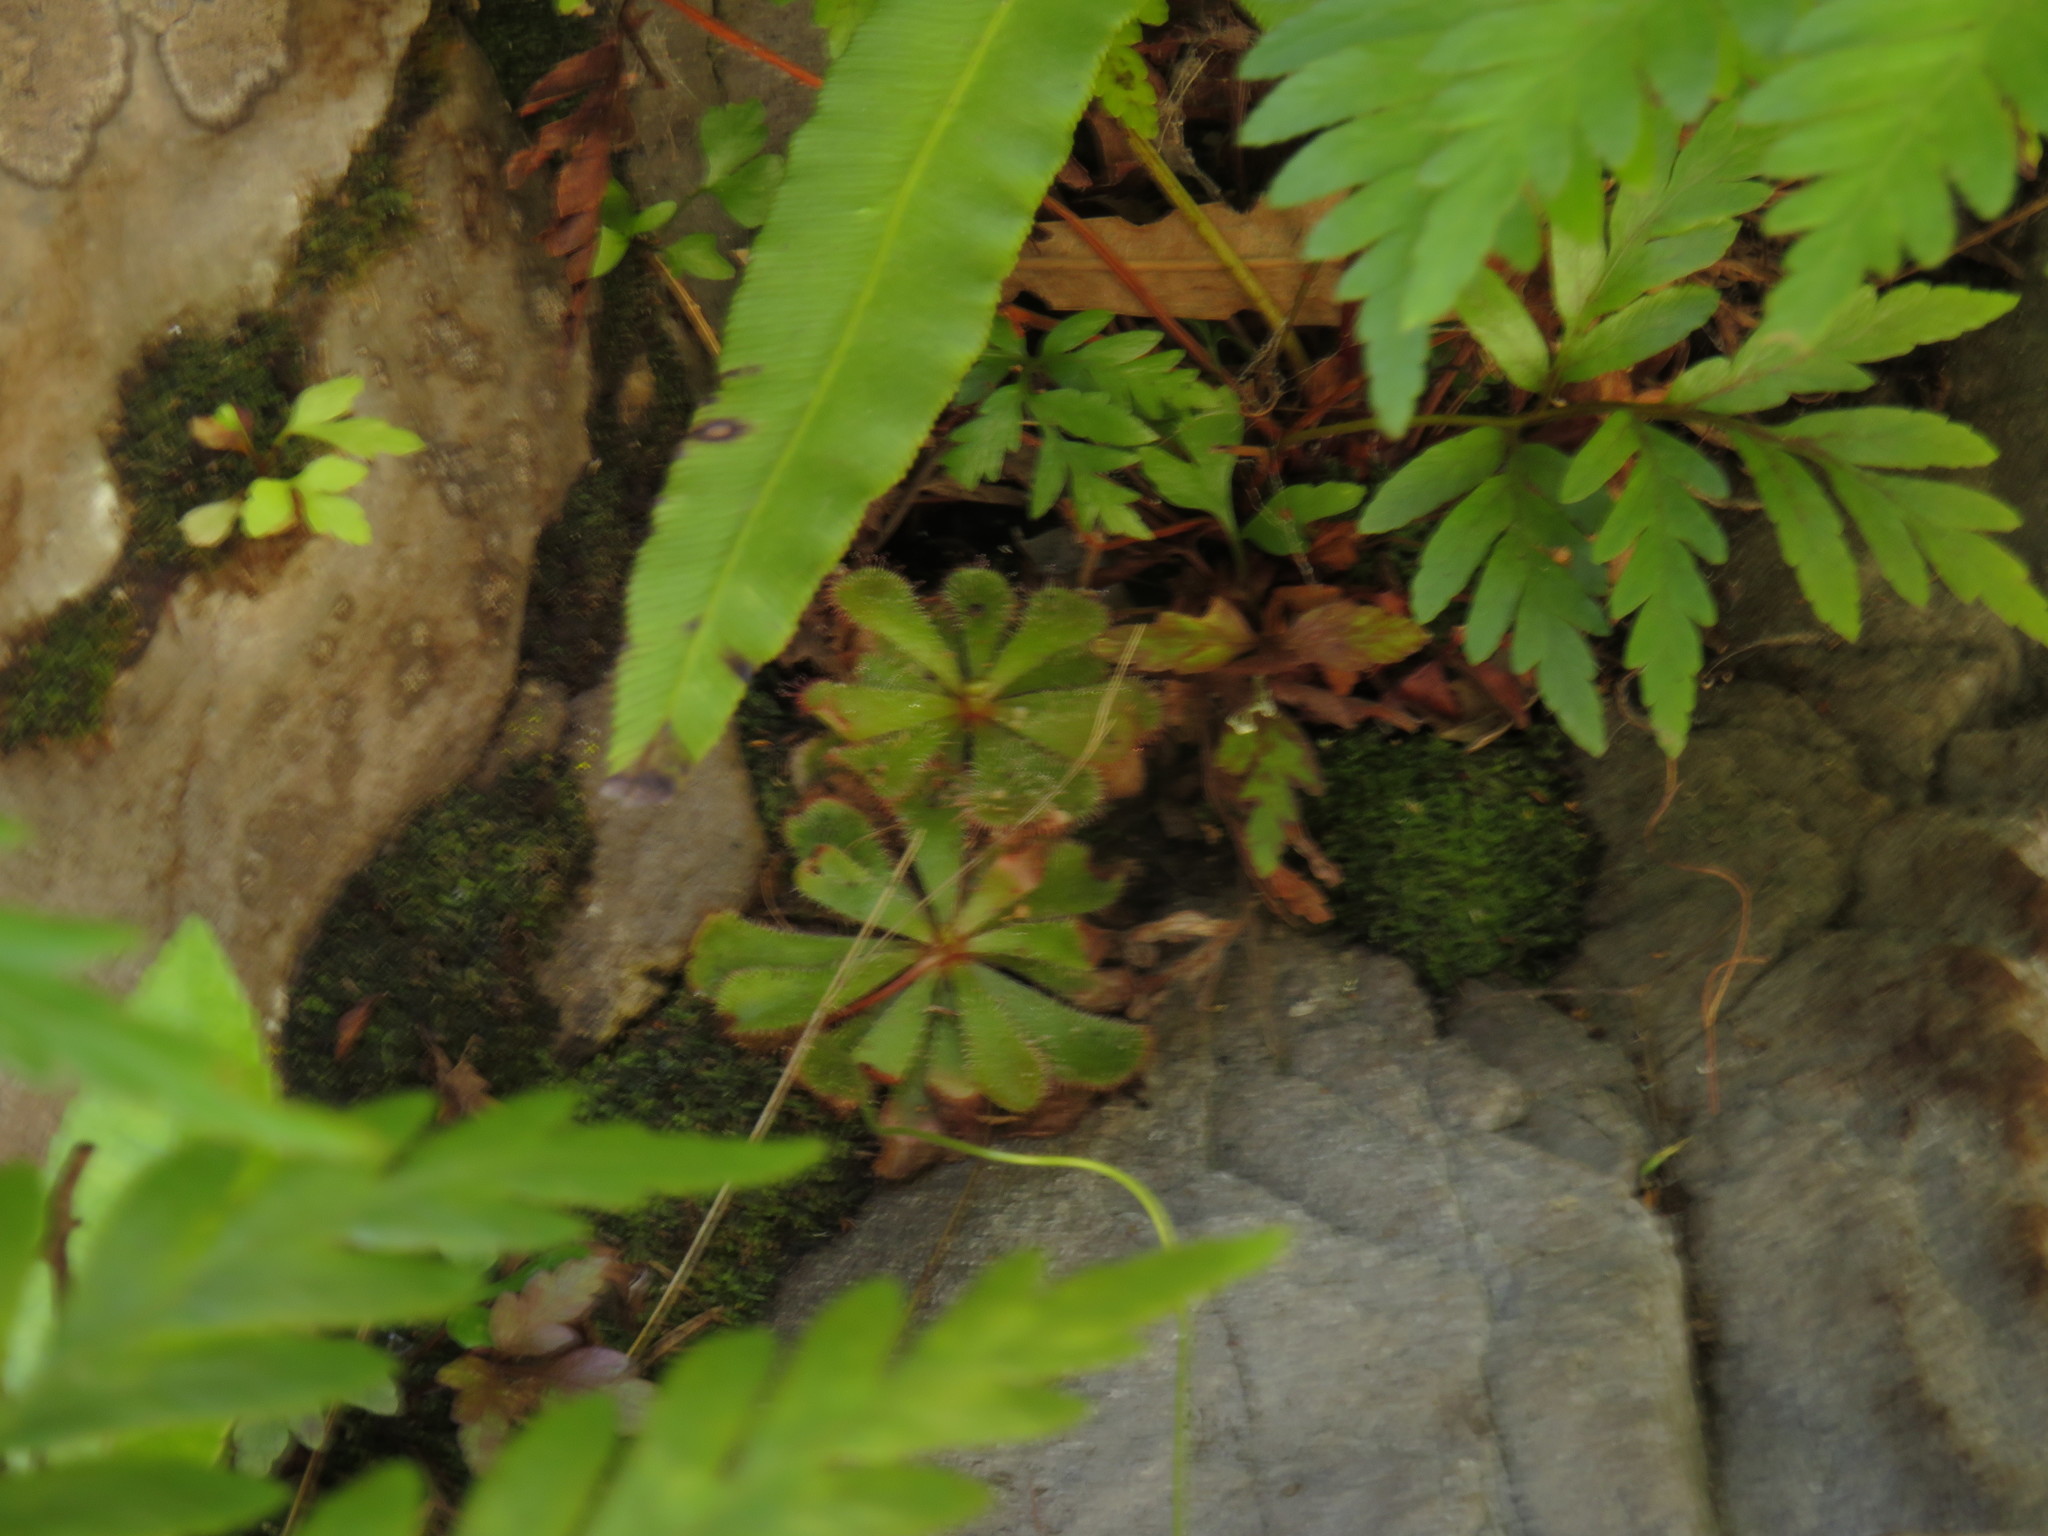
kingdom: Plantae
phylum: Tracheophyta
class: Magnoliopsida
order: Caryophyllales
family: Droseraceae
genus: Drosera
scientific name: Drosera aliciae
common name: Alice sundew
